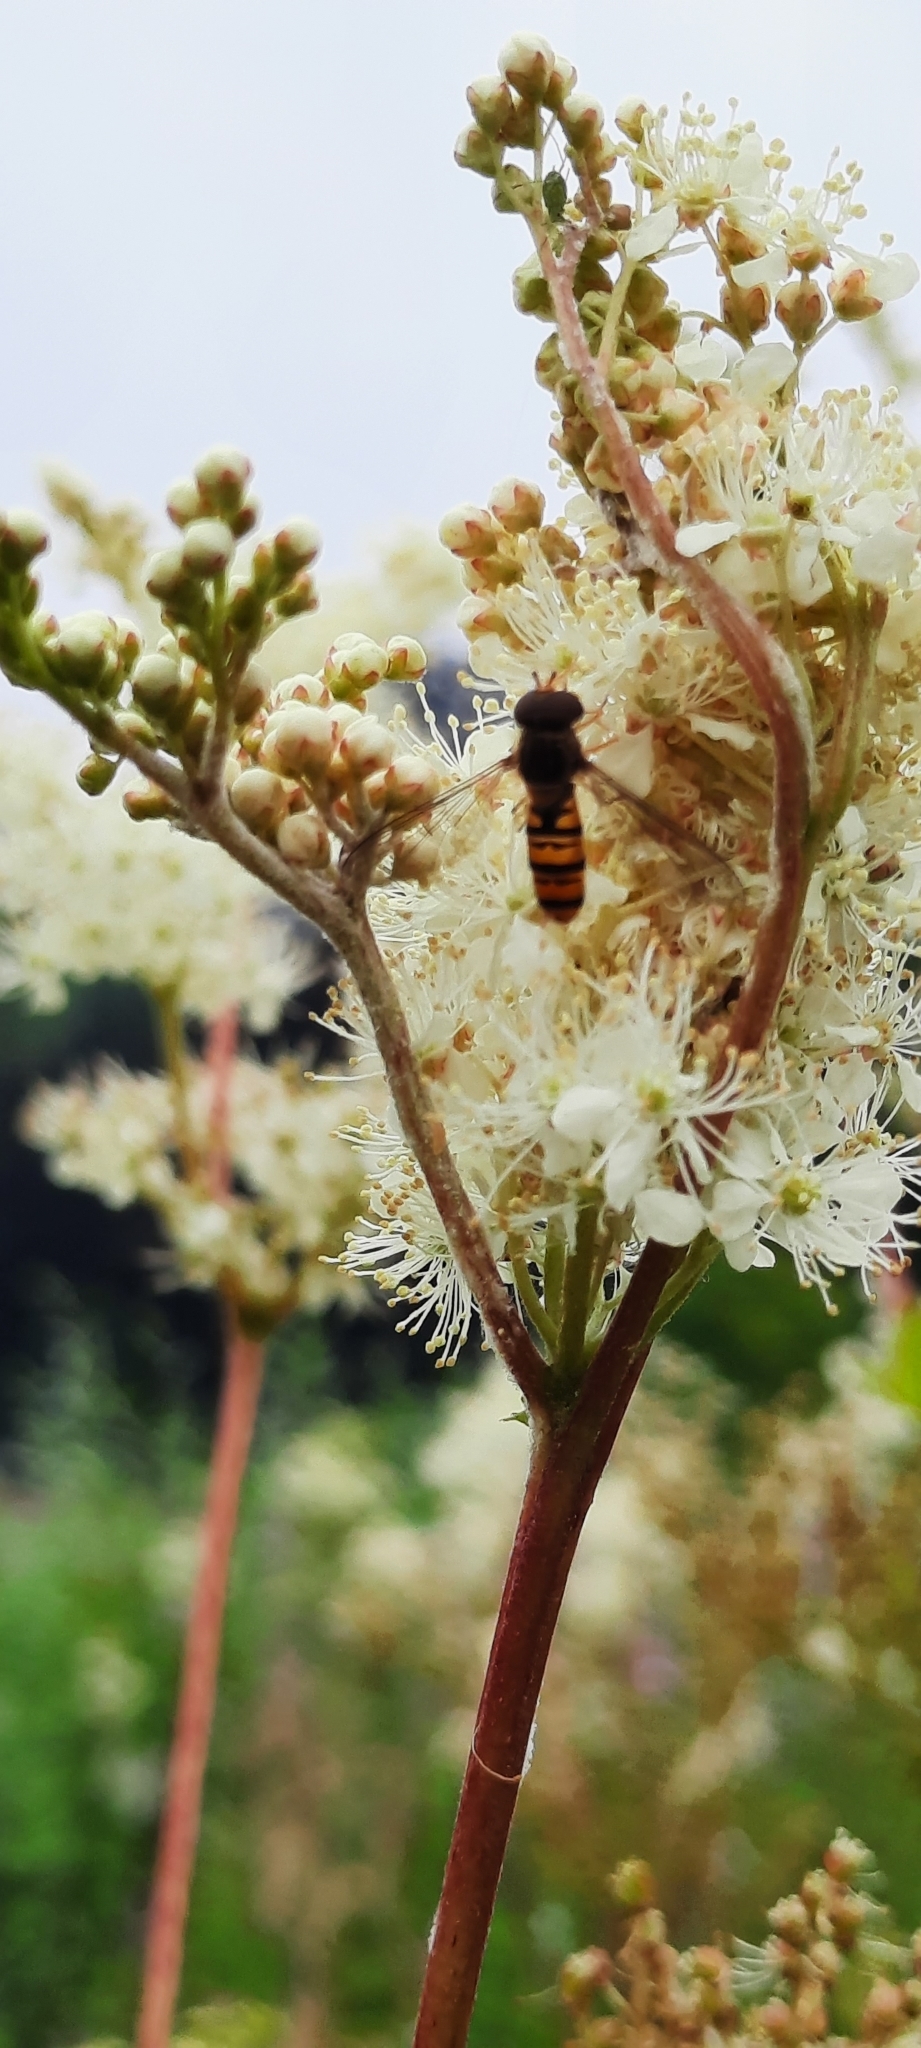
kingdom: Animalia
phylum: Arthropoda
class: Insecta
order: Diptera
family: Syrphidae
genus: Episyrphus
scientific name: Episyrphus balteatus
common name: Marmalade hoverfly
